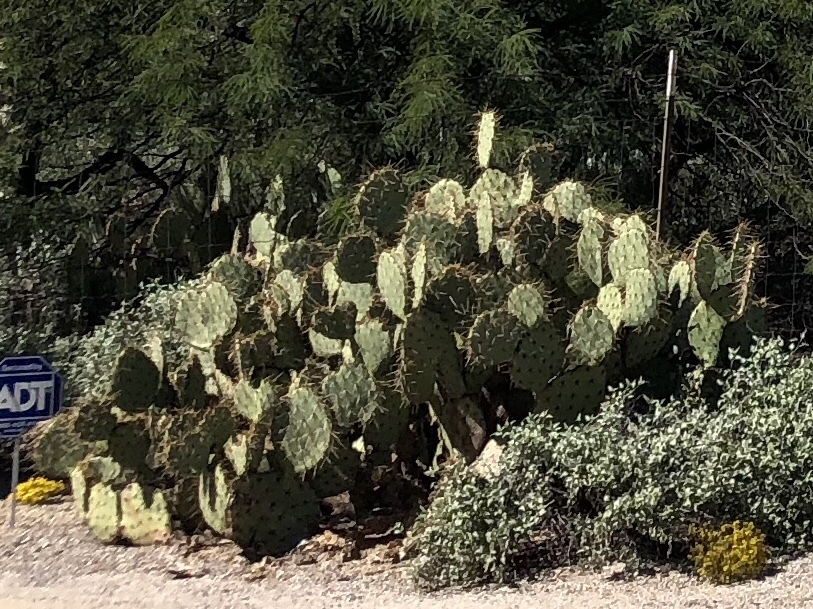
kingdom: Plantae
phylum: Tracheophyta
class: Magnoliopsida
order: Caryophyllales
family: Cactaceae
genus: Opuntia
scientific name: Opuntia engelmannii
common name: Cactus-apple
